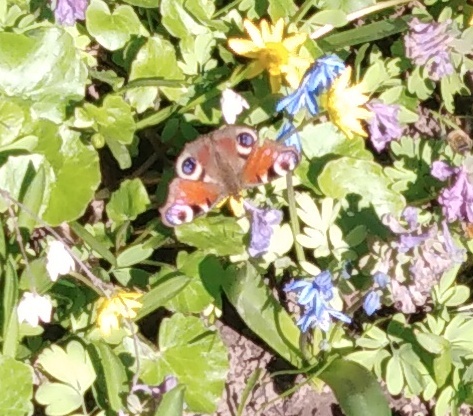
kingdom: Animalia
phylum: Arthropoda
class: Insecta
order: Lepidoptera
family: Nymphalidae
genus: Aglais
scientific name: Aglais io
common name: Peacock
